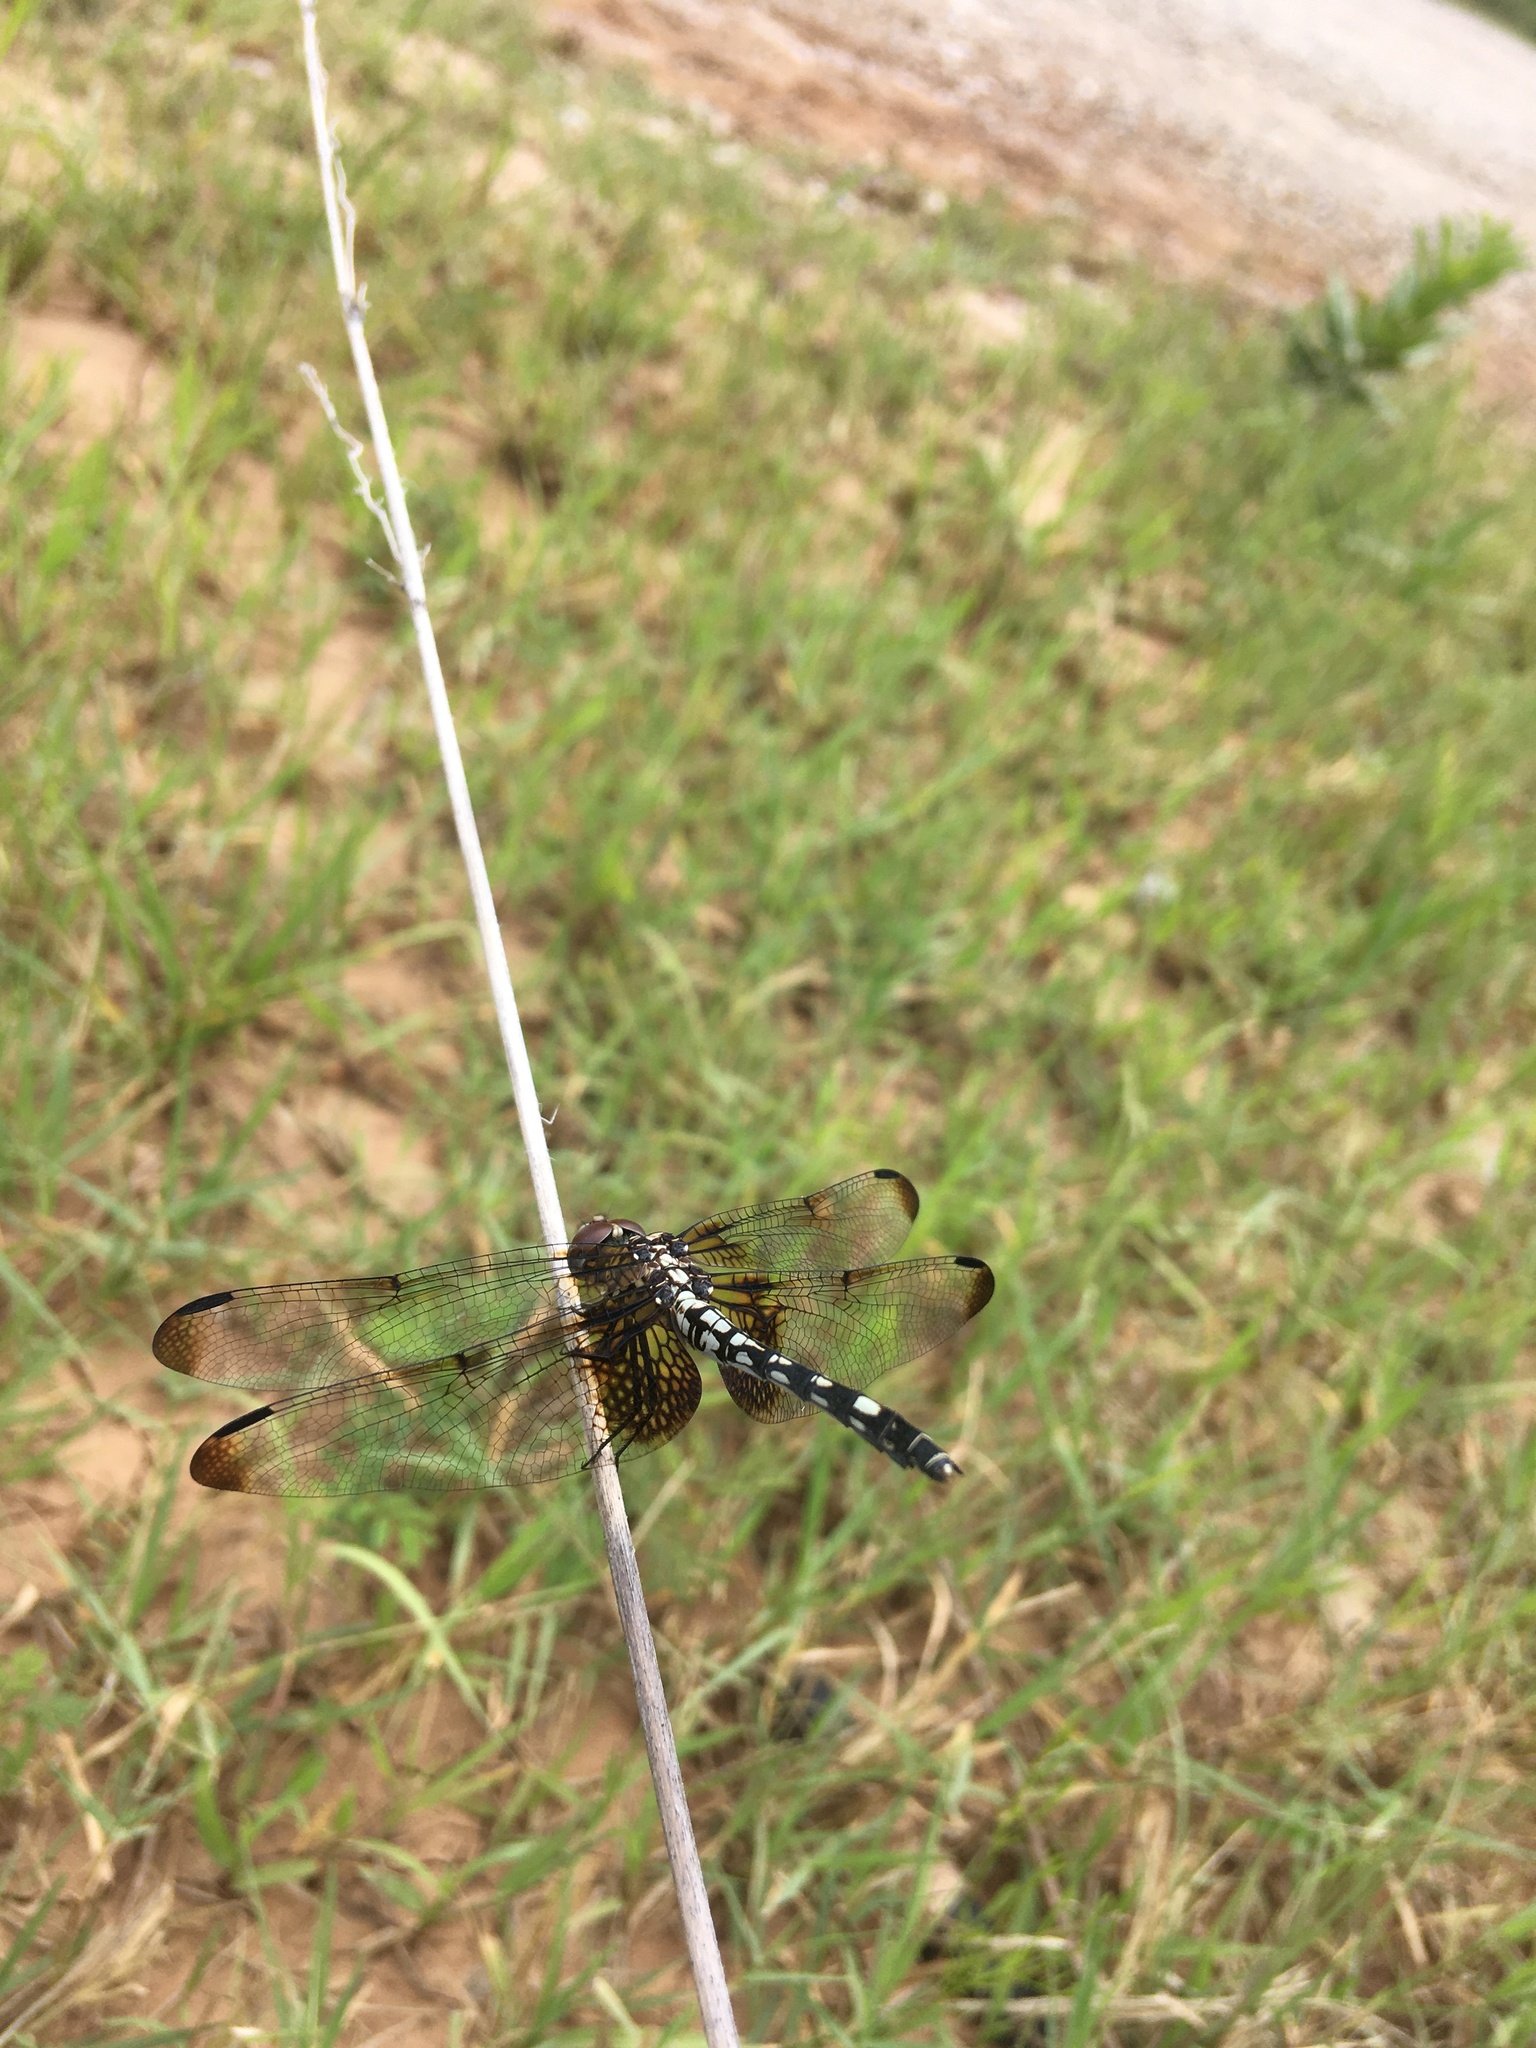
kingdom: Animalia
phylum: Arthropoda
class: Insecta
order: Odonata
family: Libellulidae
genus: Dythemis
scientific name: Dythemis fugax
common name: Checkered setwing
